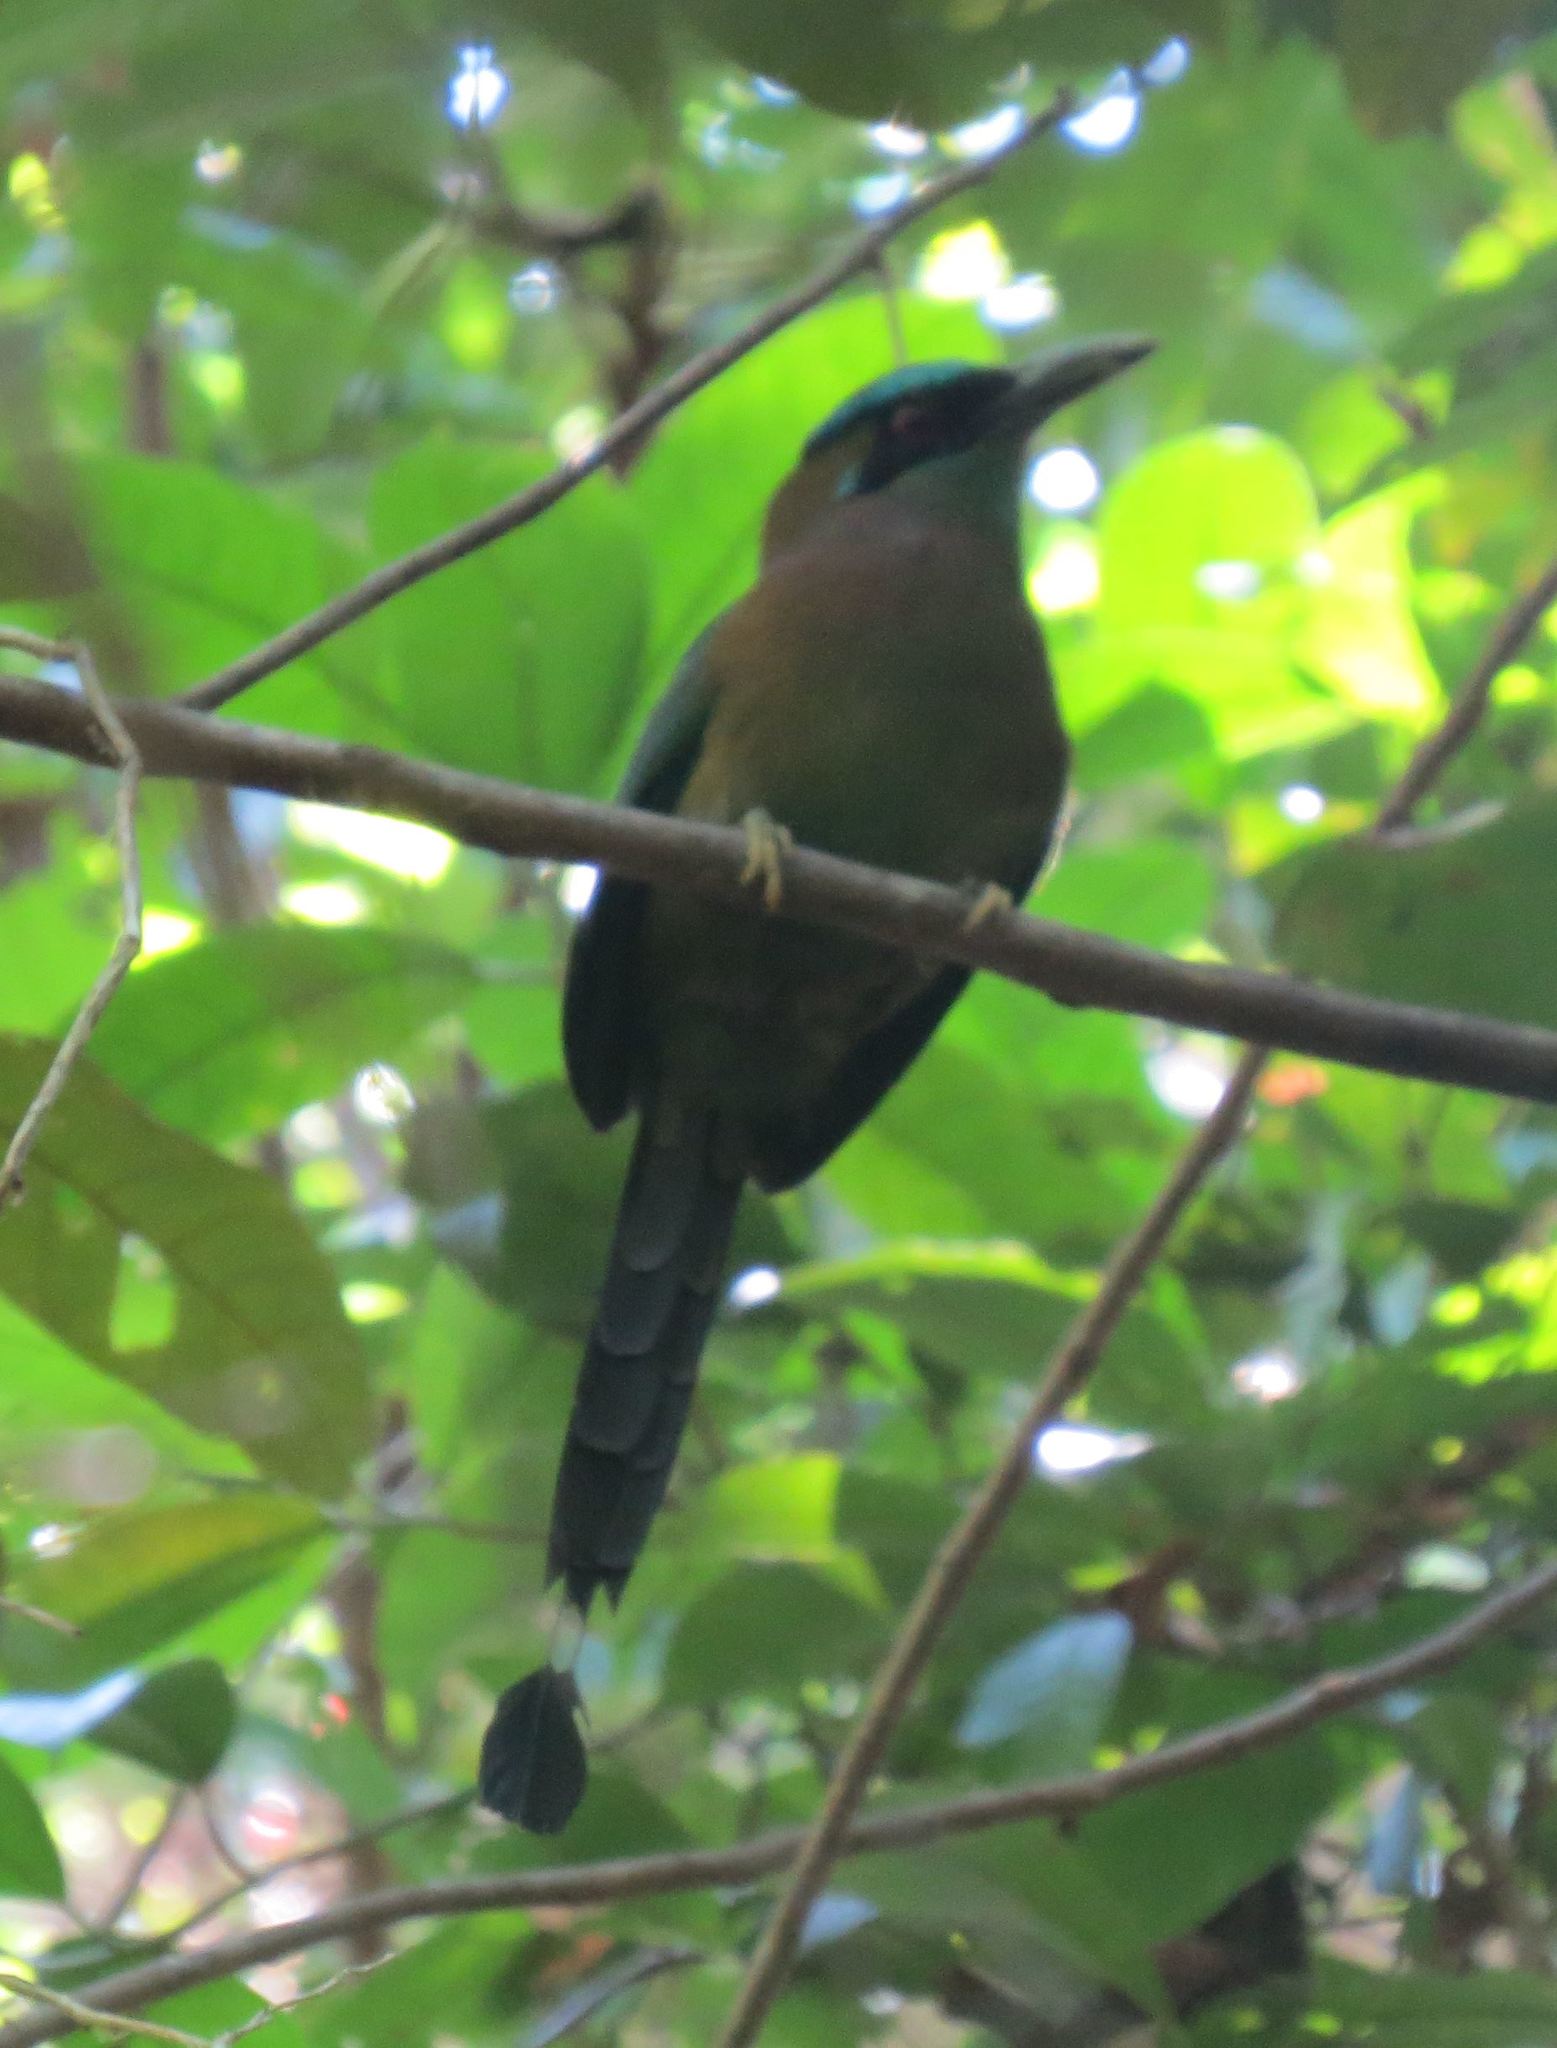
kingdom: Animalia
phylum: Chordata
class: Aves
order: Coraciiformes
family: Momotidae
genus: Momotus
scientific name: Momotus lessonii
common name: Lesson's motmot
